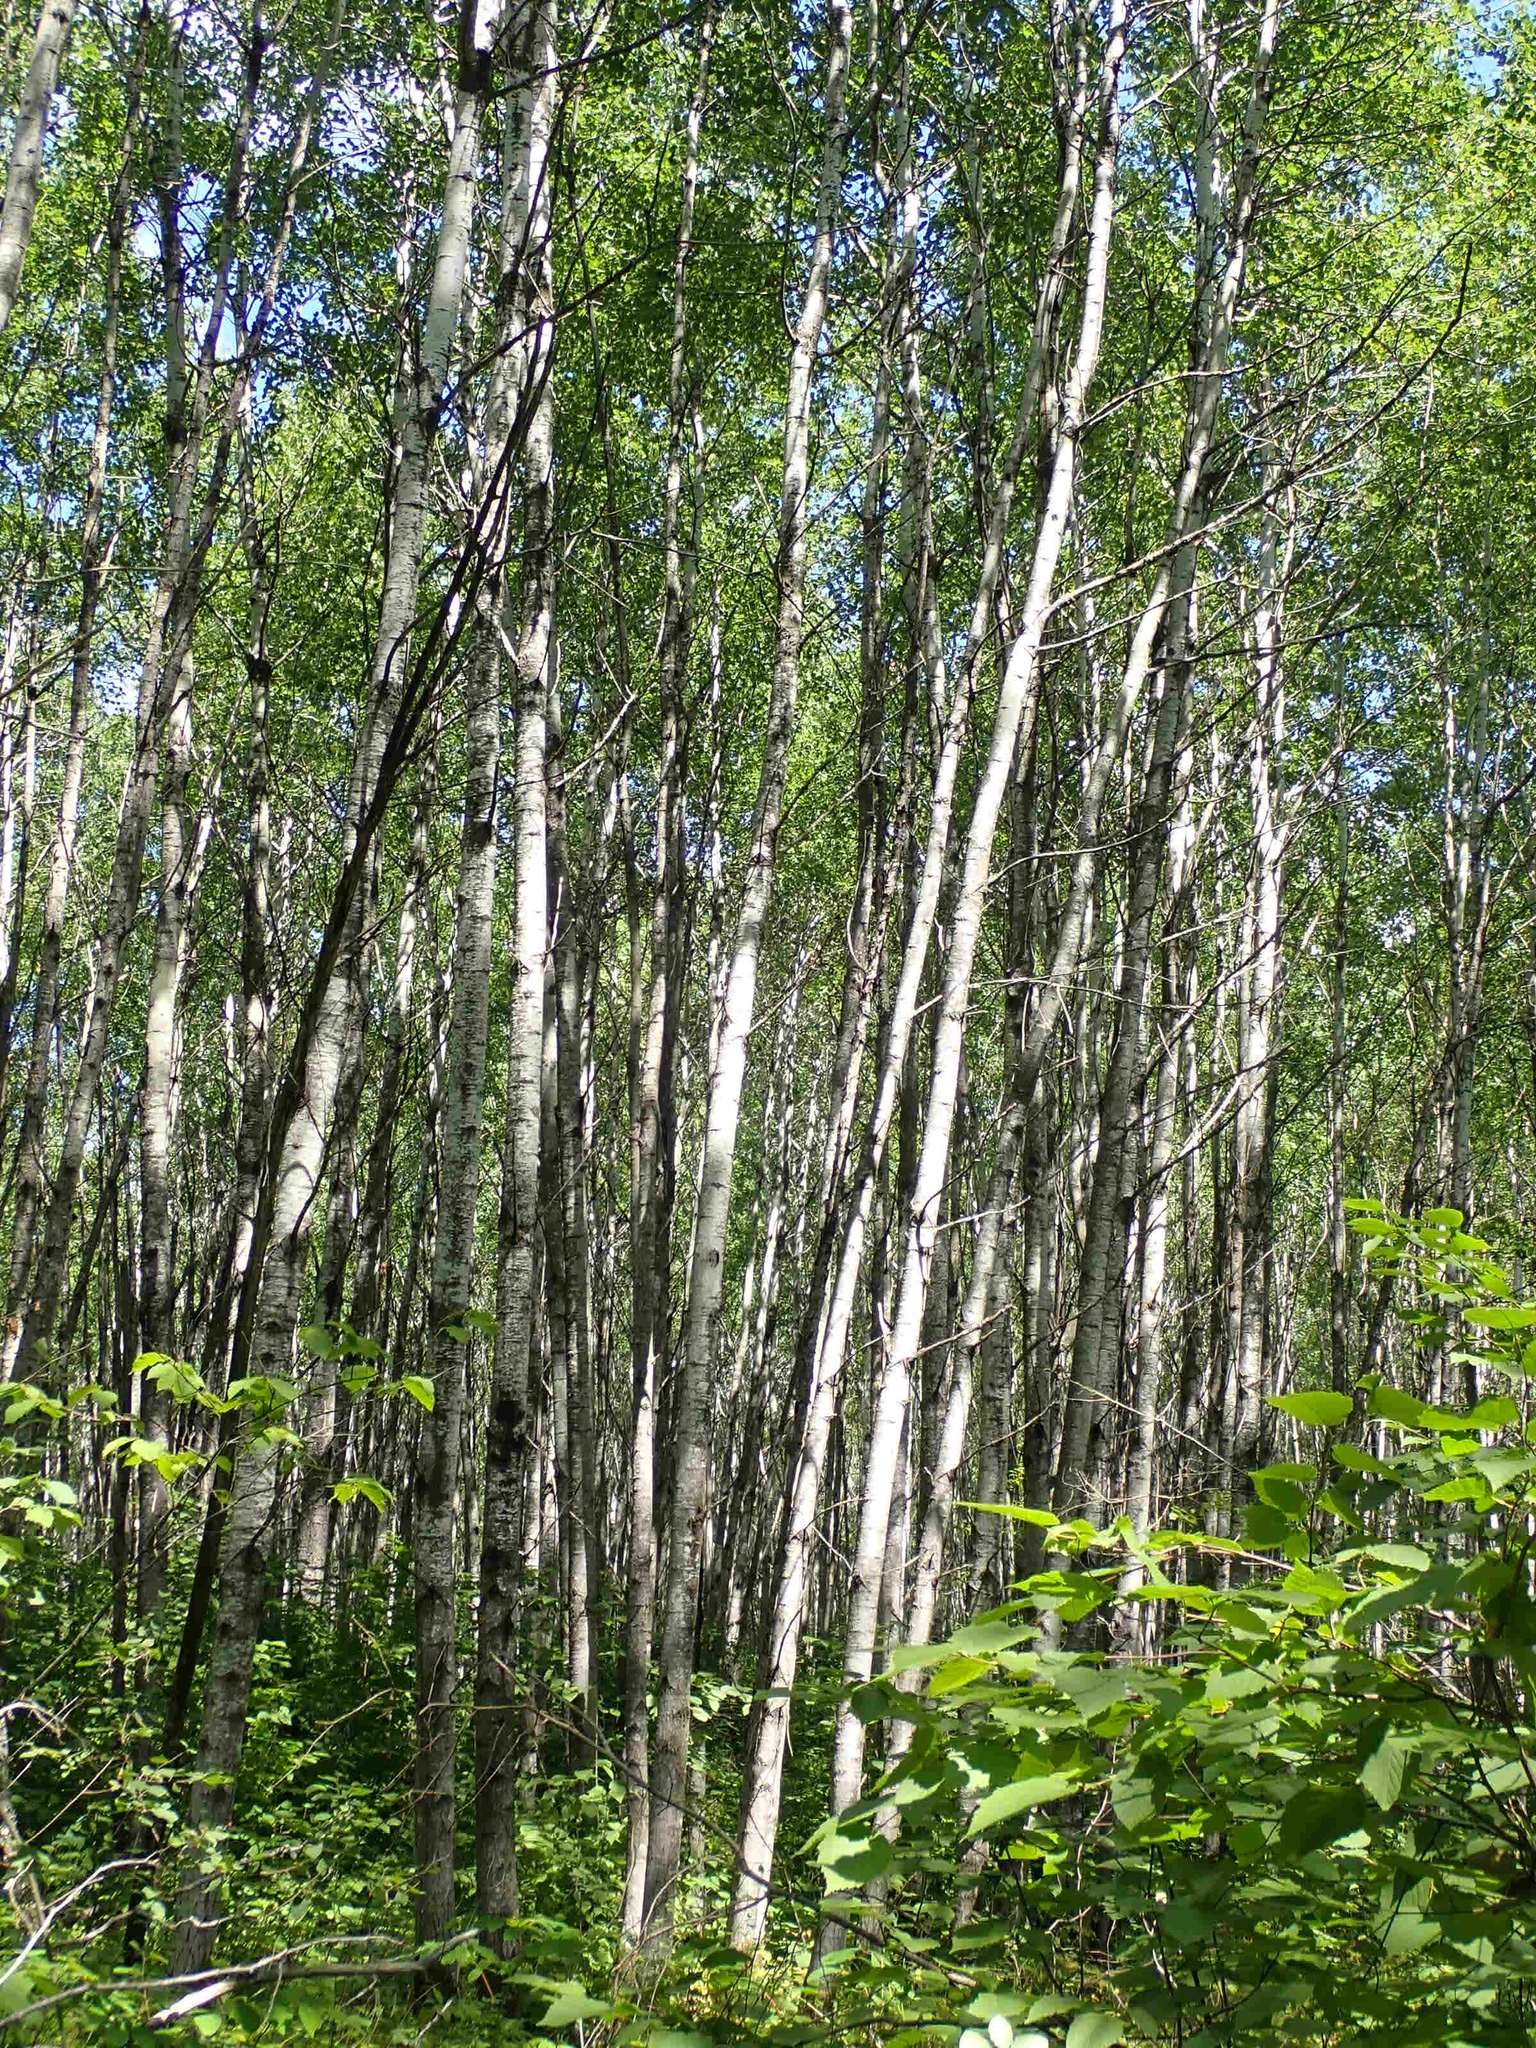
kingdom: Plantae
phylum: Tracheophyta
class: Magnoliopsida
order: Malpighiales
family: Salicaceae
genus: Populus
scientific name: Populus tremuloides
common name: Quaking aspen
